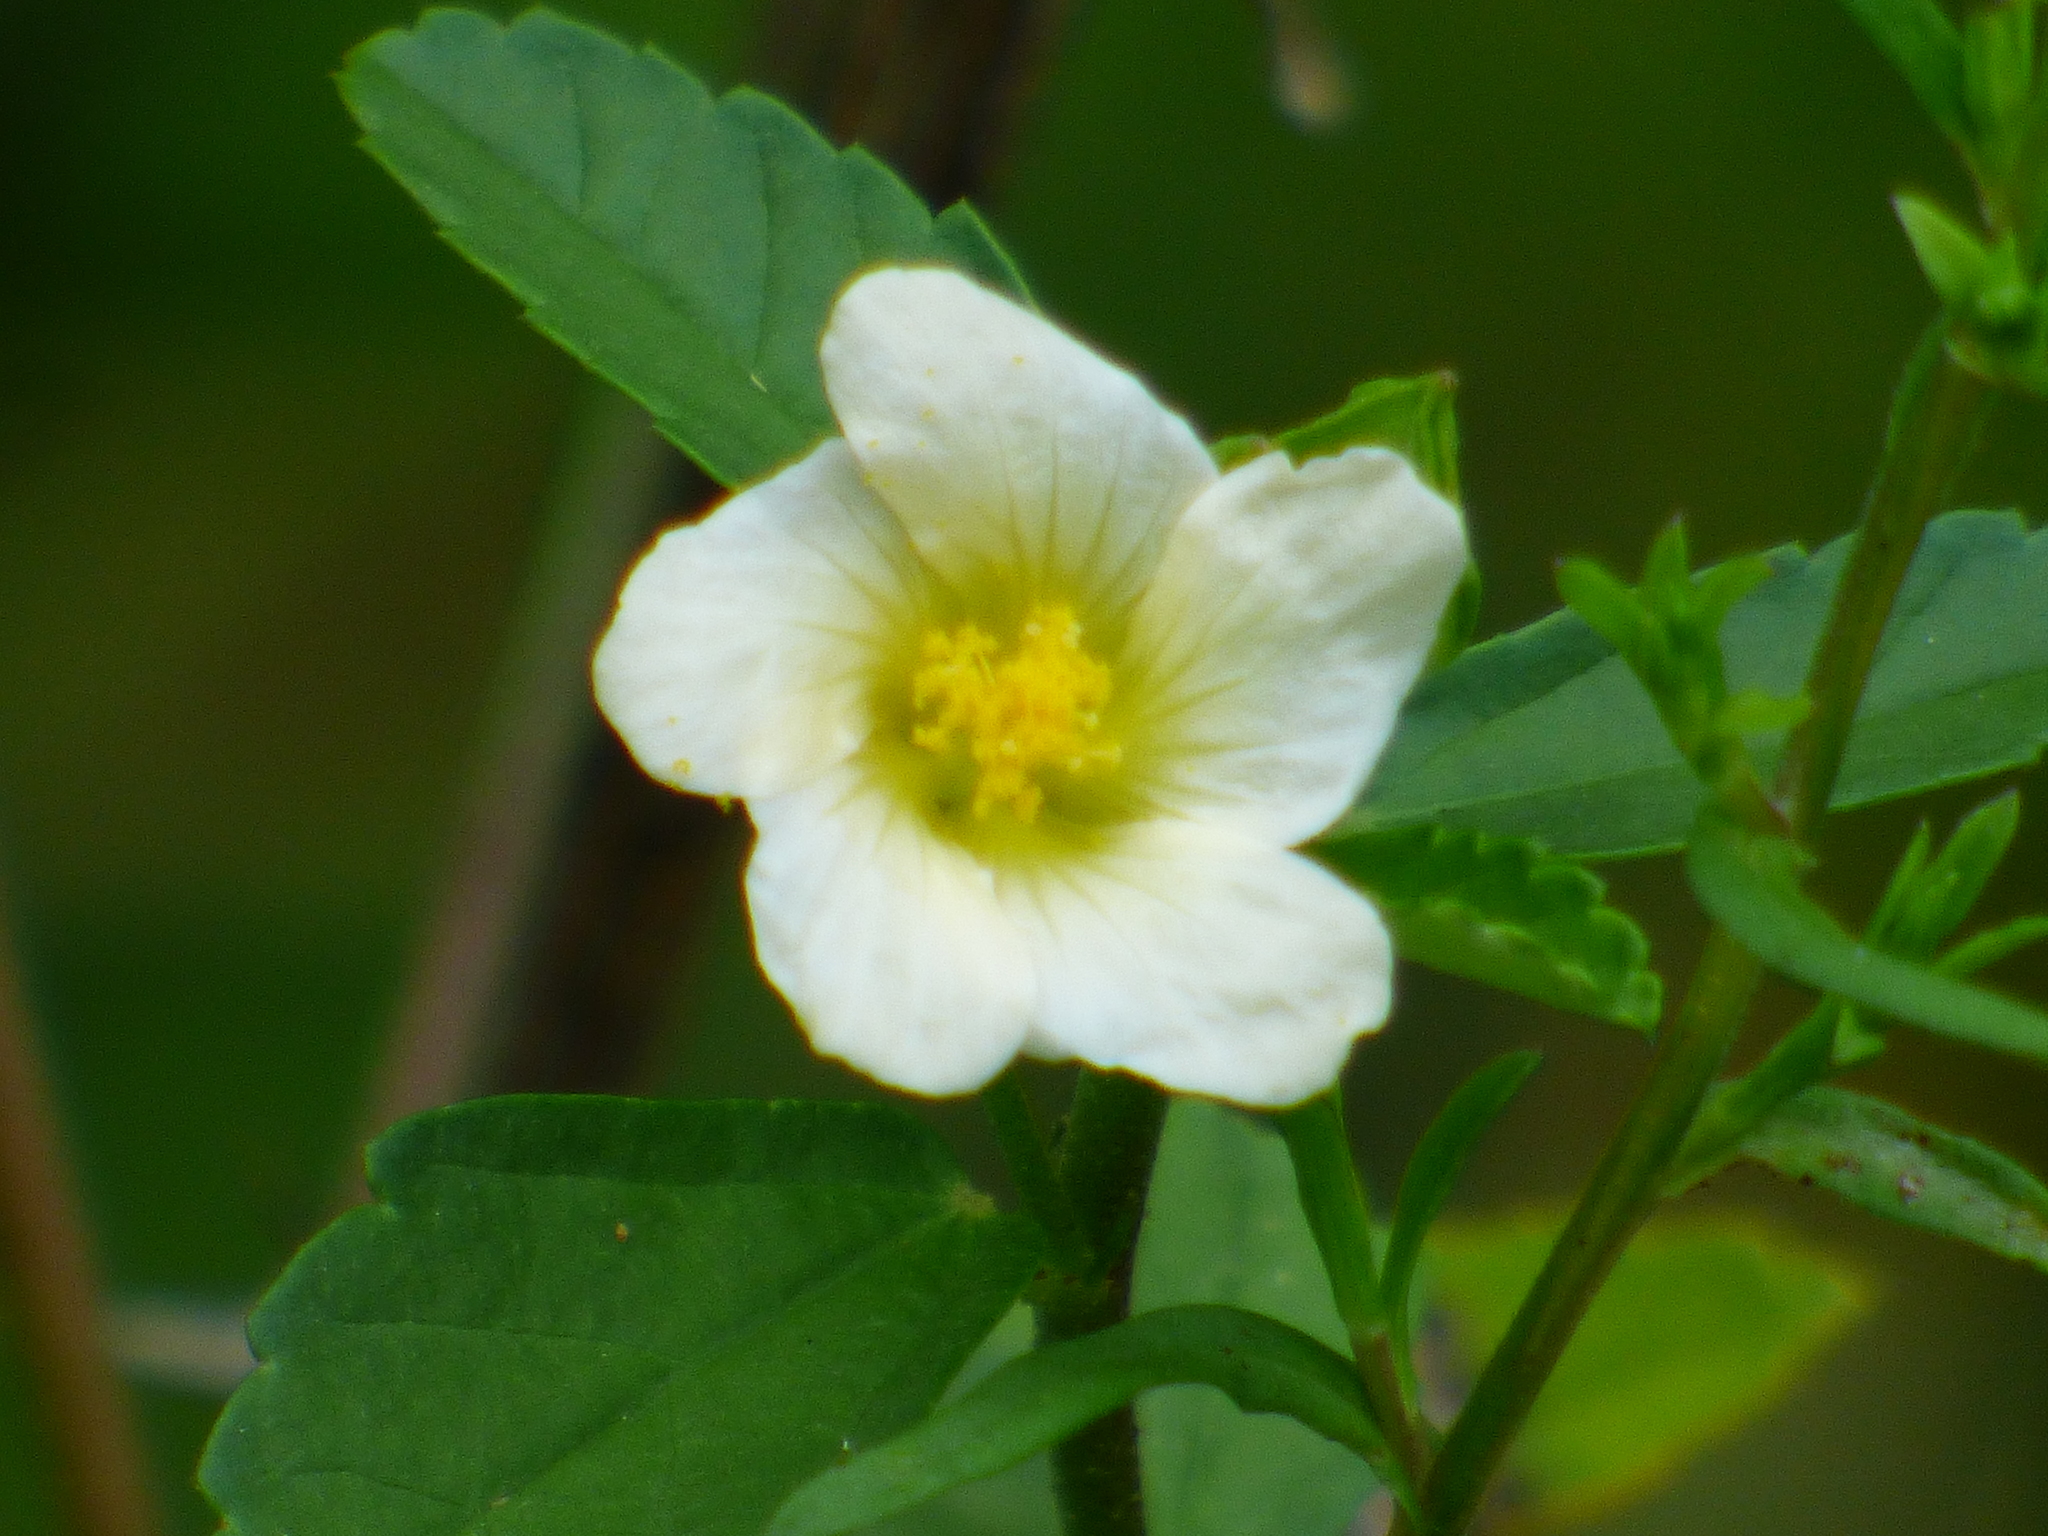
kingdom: Plantae
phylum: Tracheophyta
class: Magnoliopsida
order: Malvales
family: Malvaceae
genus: Sida
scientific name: Sida rhombifolia
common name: Queensland-hemp
